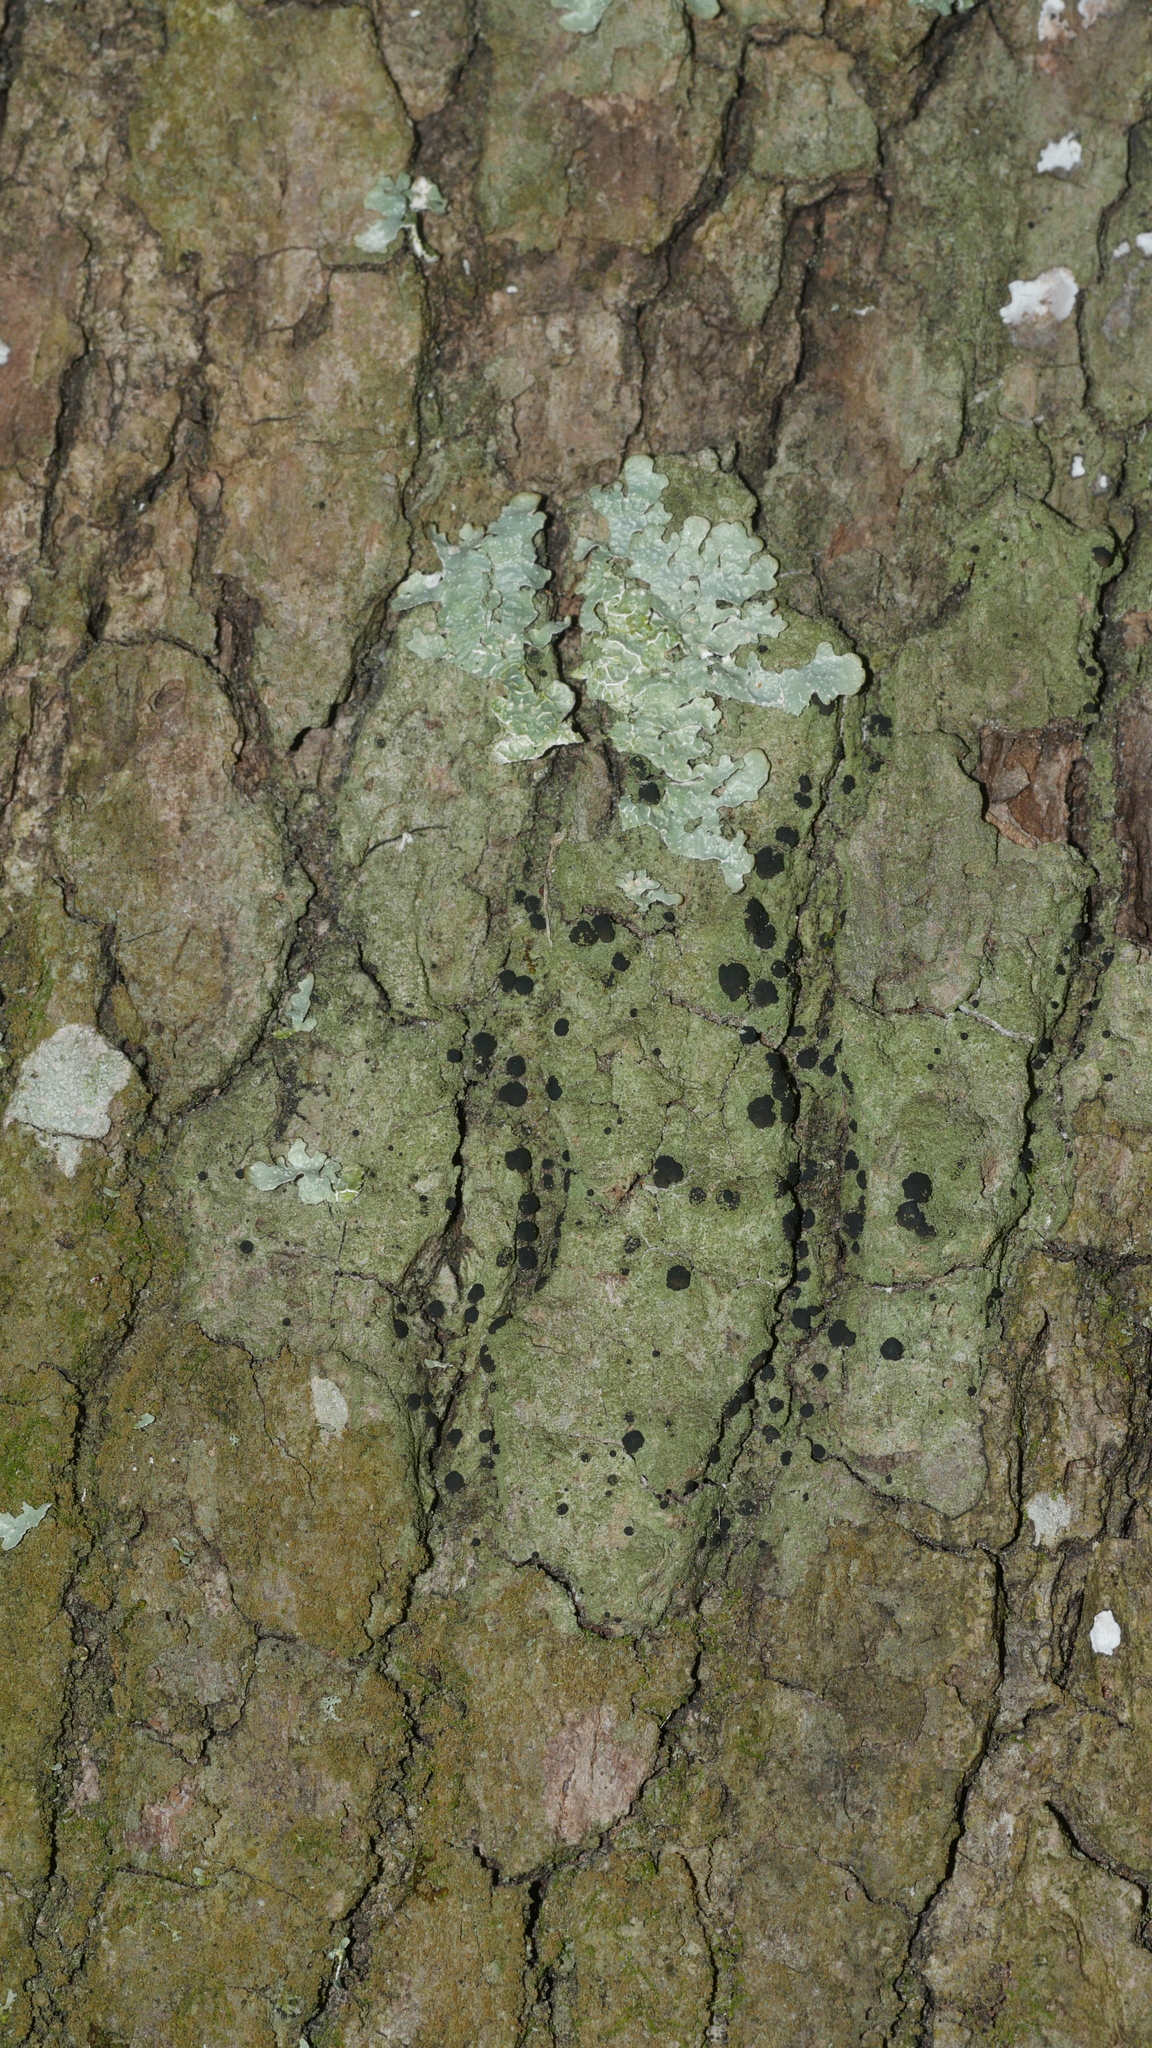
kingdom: Fungi
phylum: Ascomycota
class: Lecanoromycetes
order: Lecanorales
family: Ramalinaceae
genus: Bacidia
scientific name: Bacidia schweinitzii
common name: Surprise lichen
